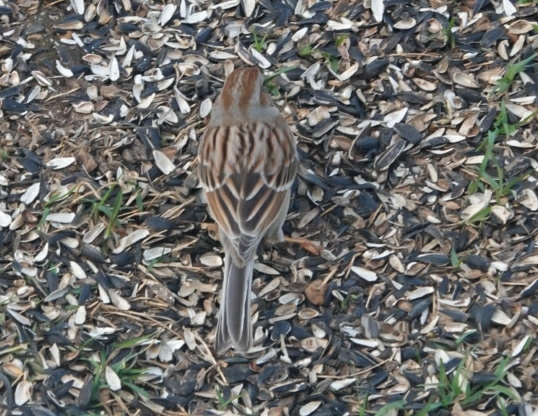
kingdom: Animalia
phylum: Chordata
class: Aves
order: Passeriformes
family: Passerellidae
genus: Spizella
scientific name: Spizella pusilla
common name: Field sparrow
